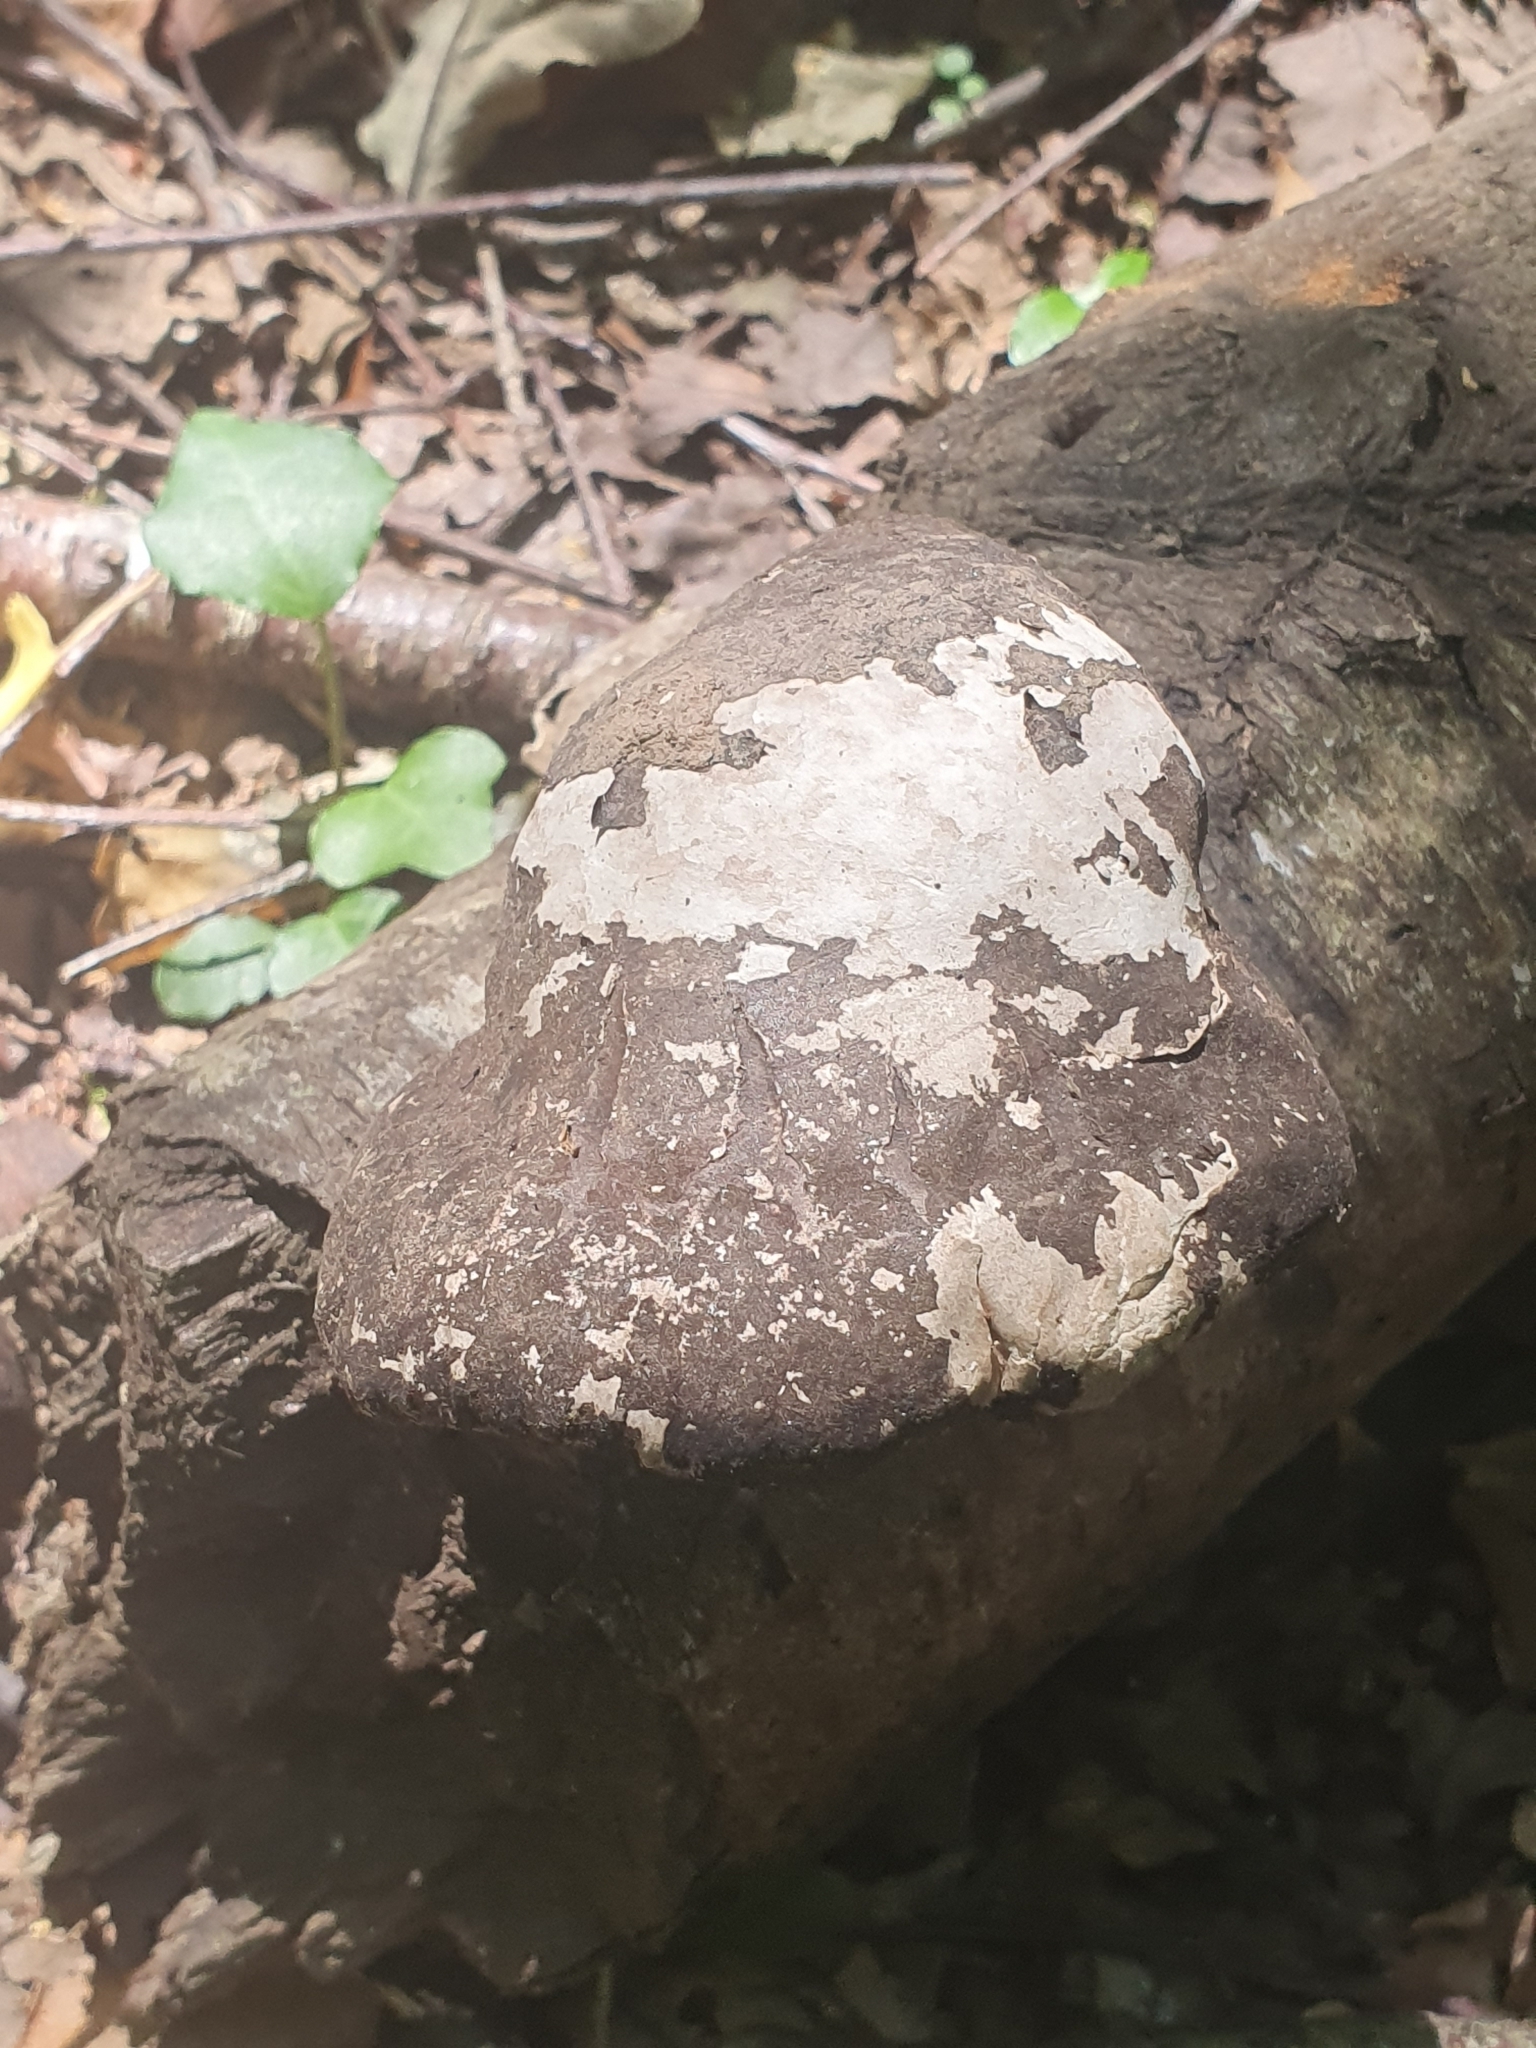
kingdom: Fungi
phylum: Basidiomycota
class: Agaricomycetes
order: Polyporales
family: Fomitopsidaceae
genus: Fomitopsis
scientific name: Fomitopsis betulina
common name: Birch polypore
